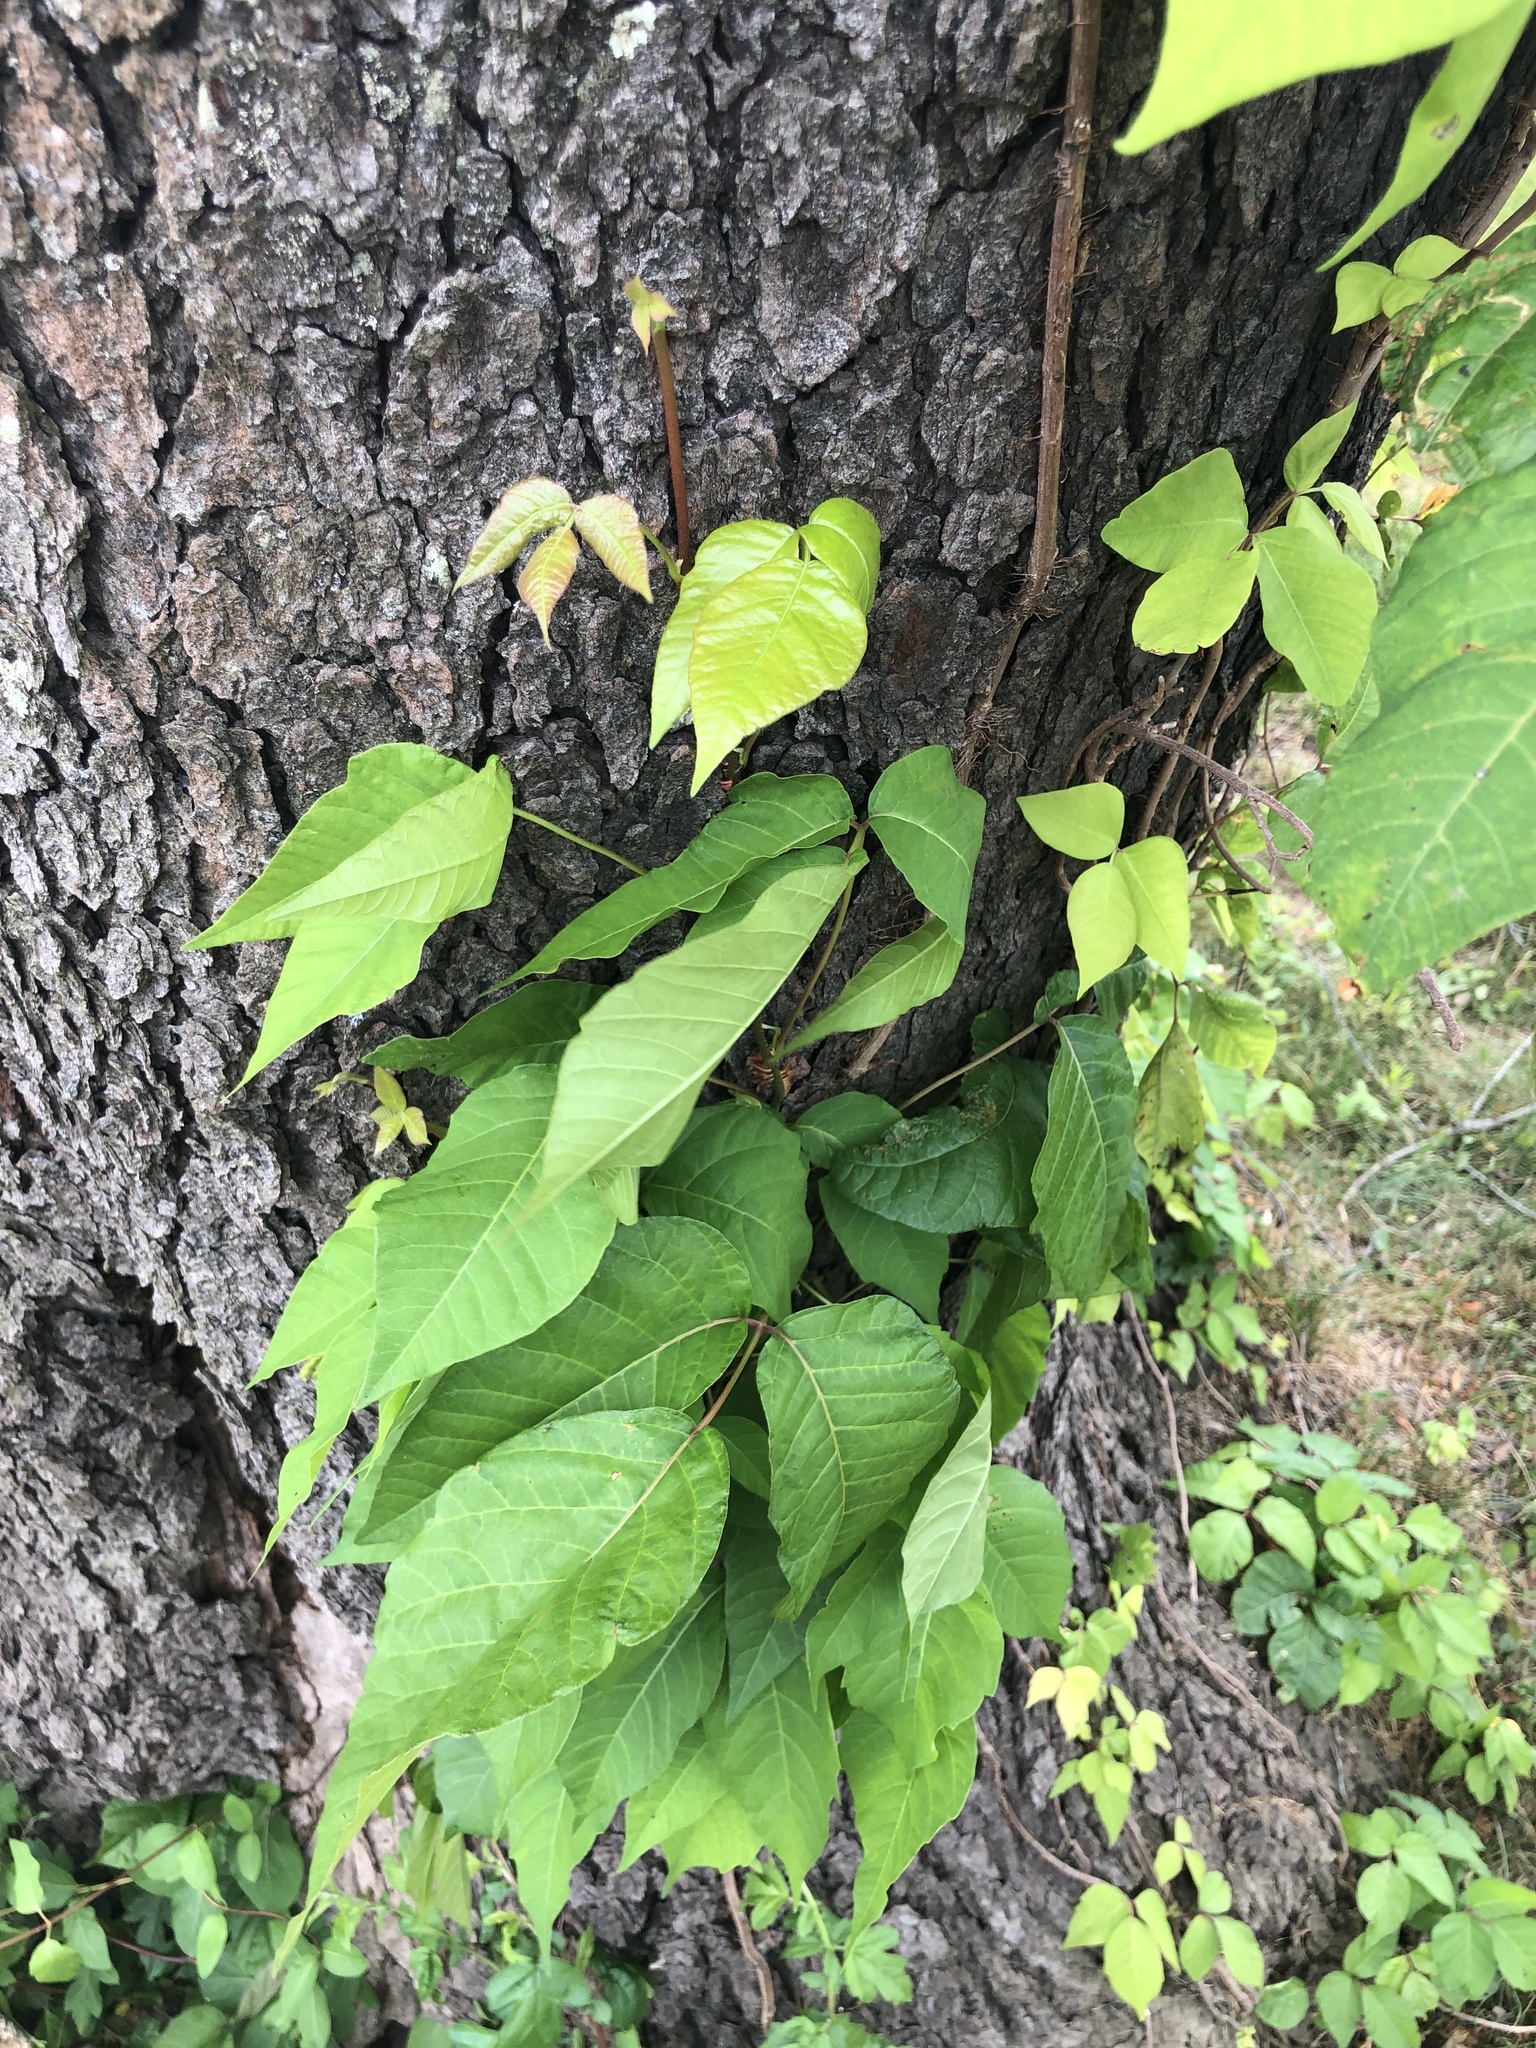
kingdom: Plantae
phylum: Tracheophyta
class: Magnoliopsida
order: Sapindales
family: Anacardiaceae
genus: Toxicodendron
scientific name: Toxicodendron radicans
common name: Poison ivy
